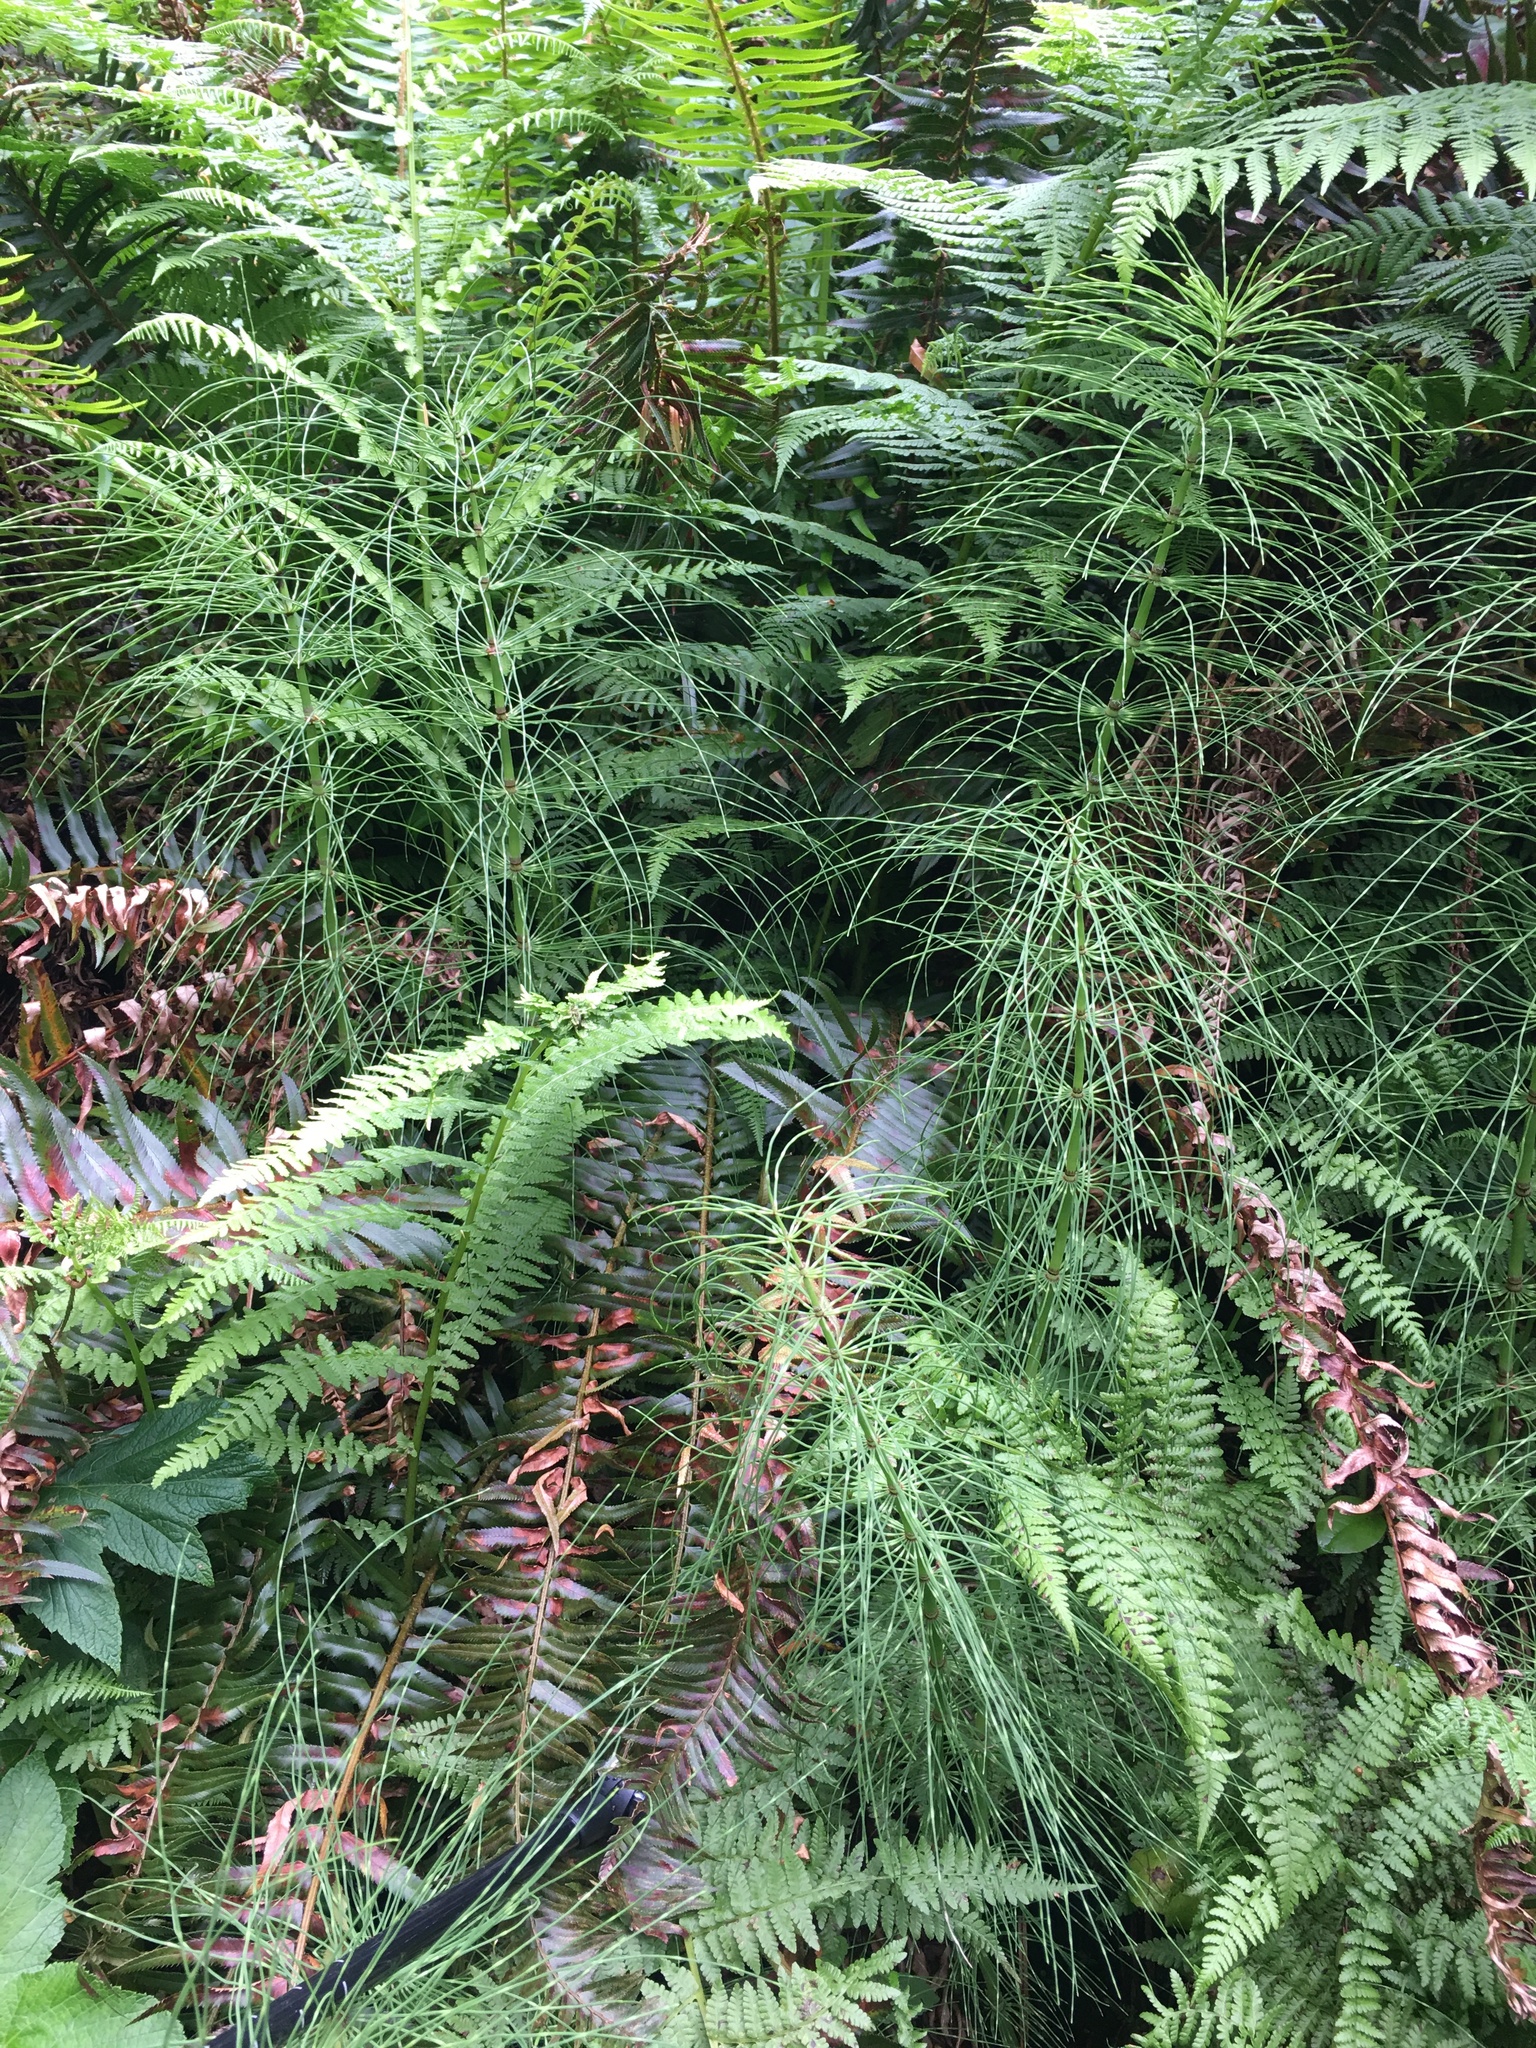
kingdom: Plantae
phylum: Tracheophyta
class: Polypodiopsida
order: Equisetales
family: Equisetaceae
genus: Equisetum
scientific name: Equisetum telmateia
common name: Great horsetail
